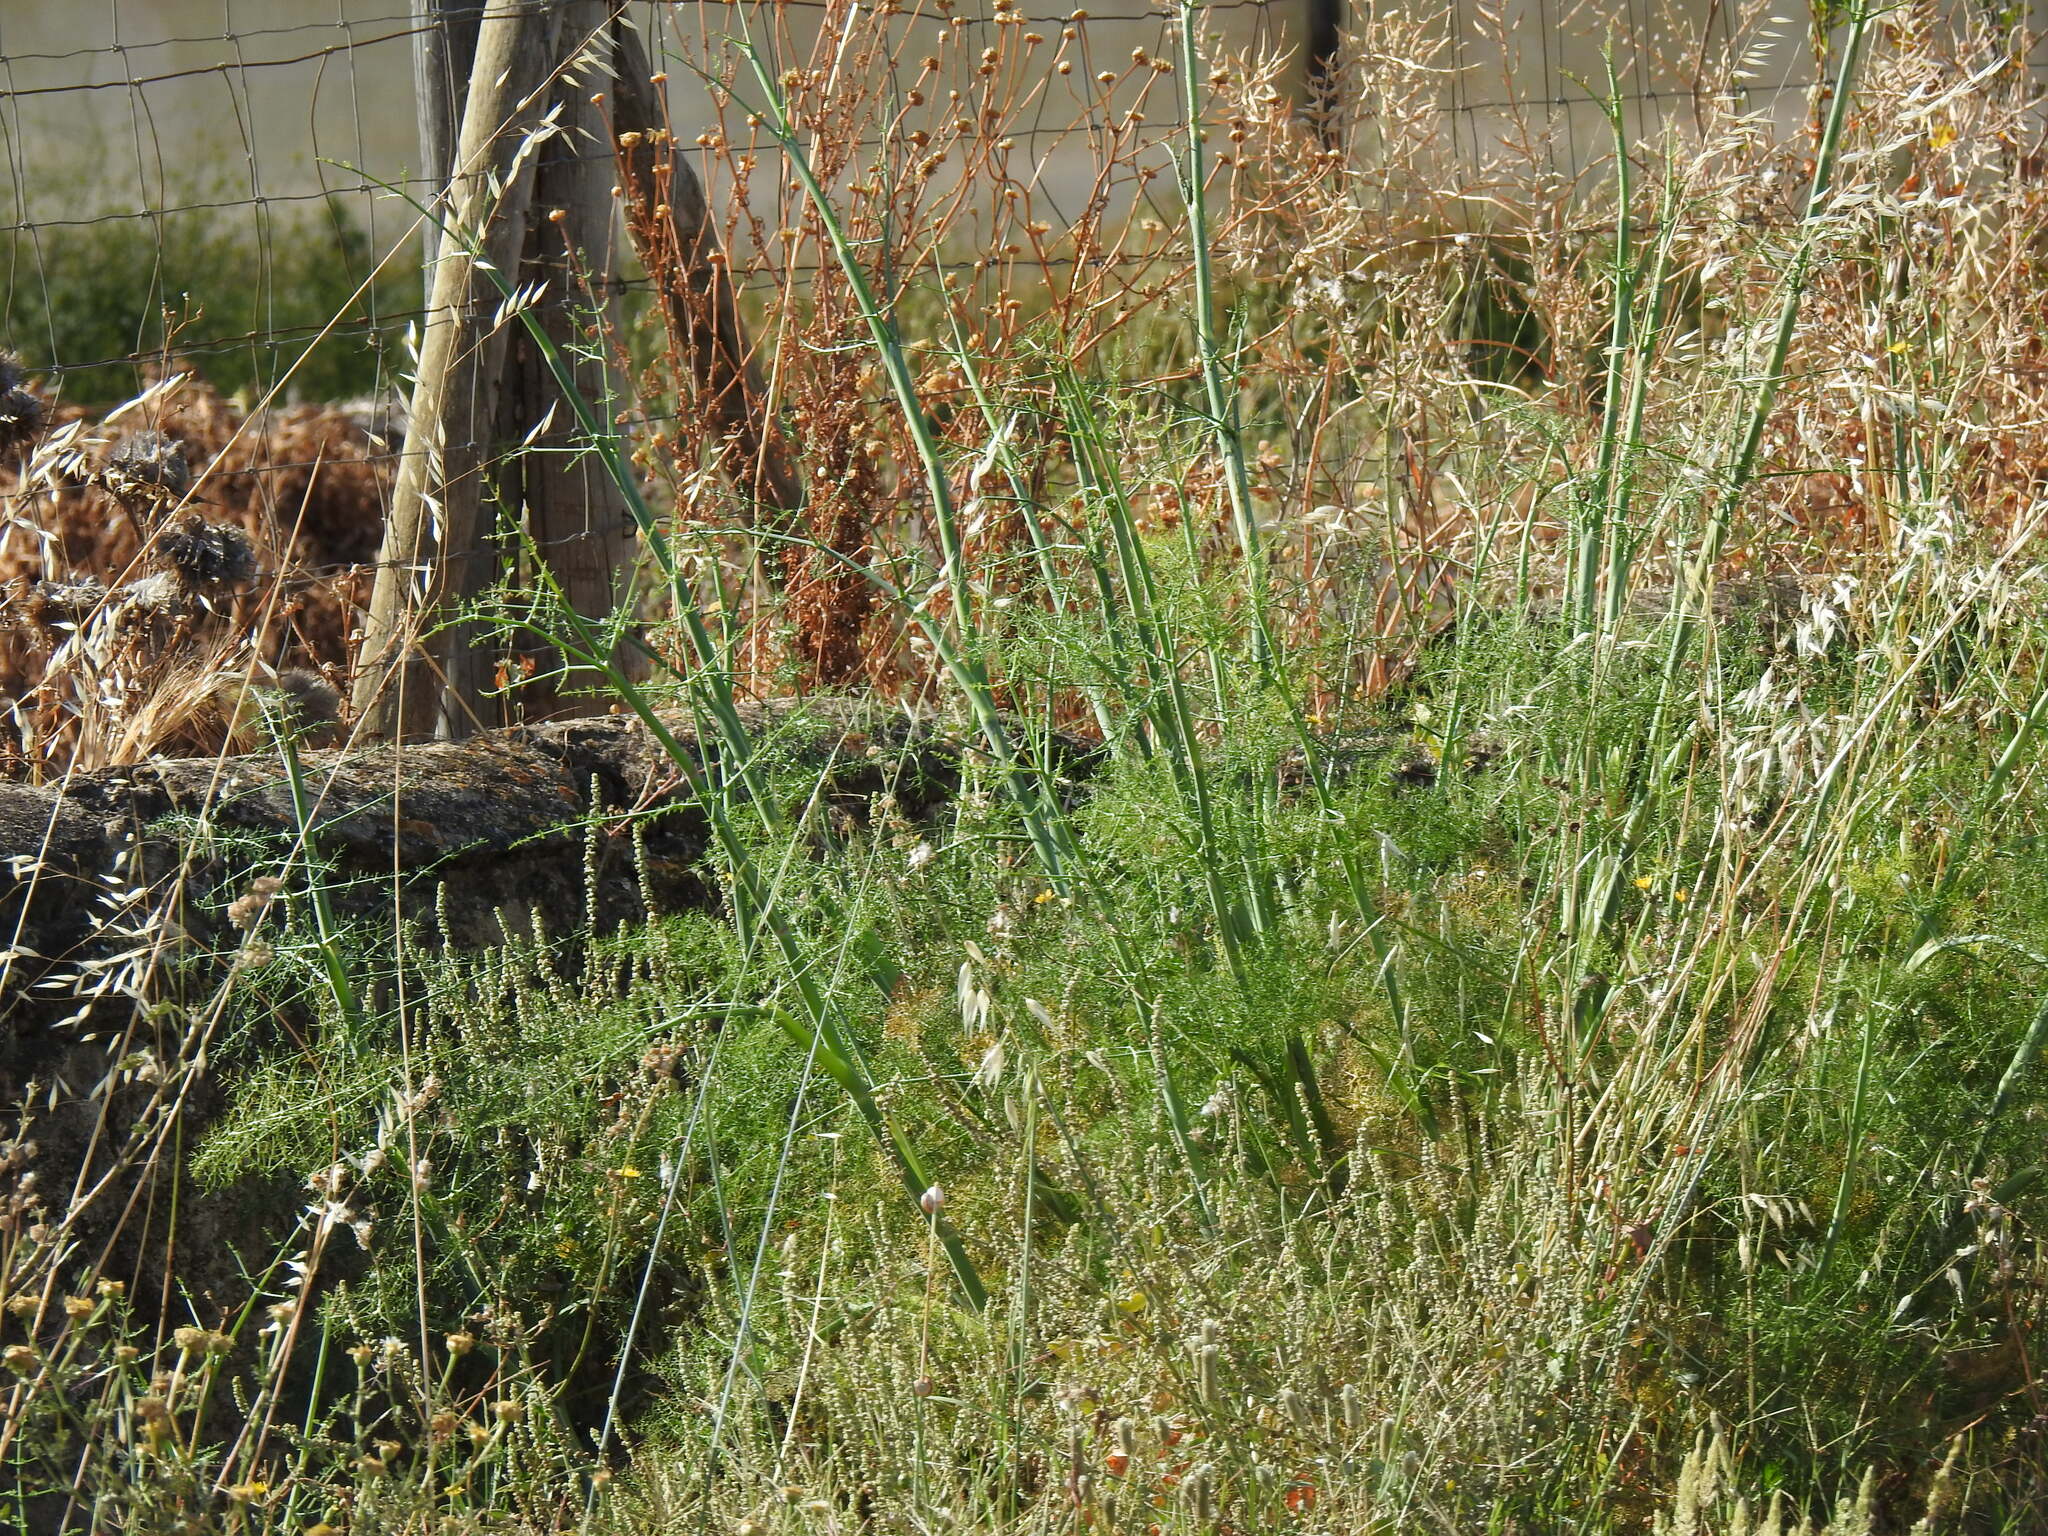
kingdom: Plantae
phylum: Tracheophyta
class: Magnoliopsida
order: Apiales
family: Apiaceae
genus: Foeniculum
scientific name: Foeniculum vulgare
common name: Fennel
